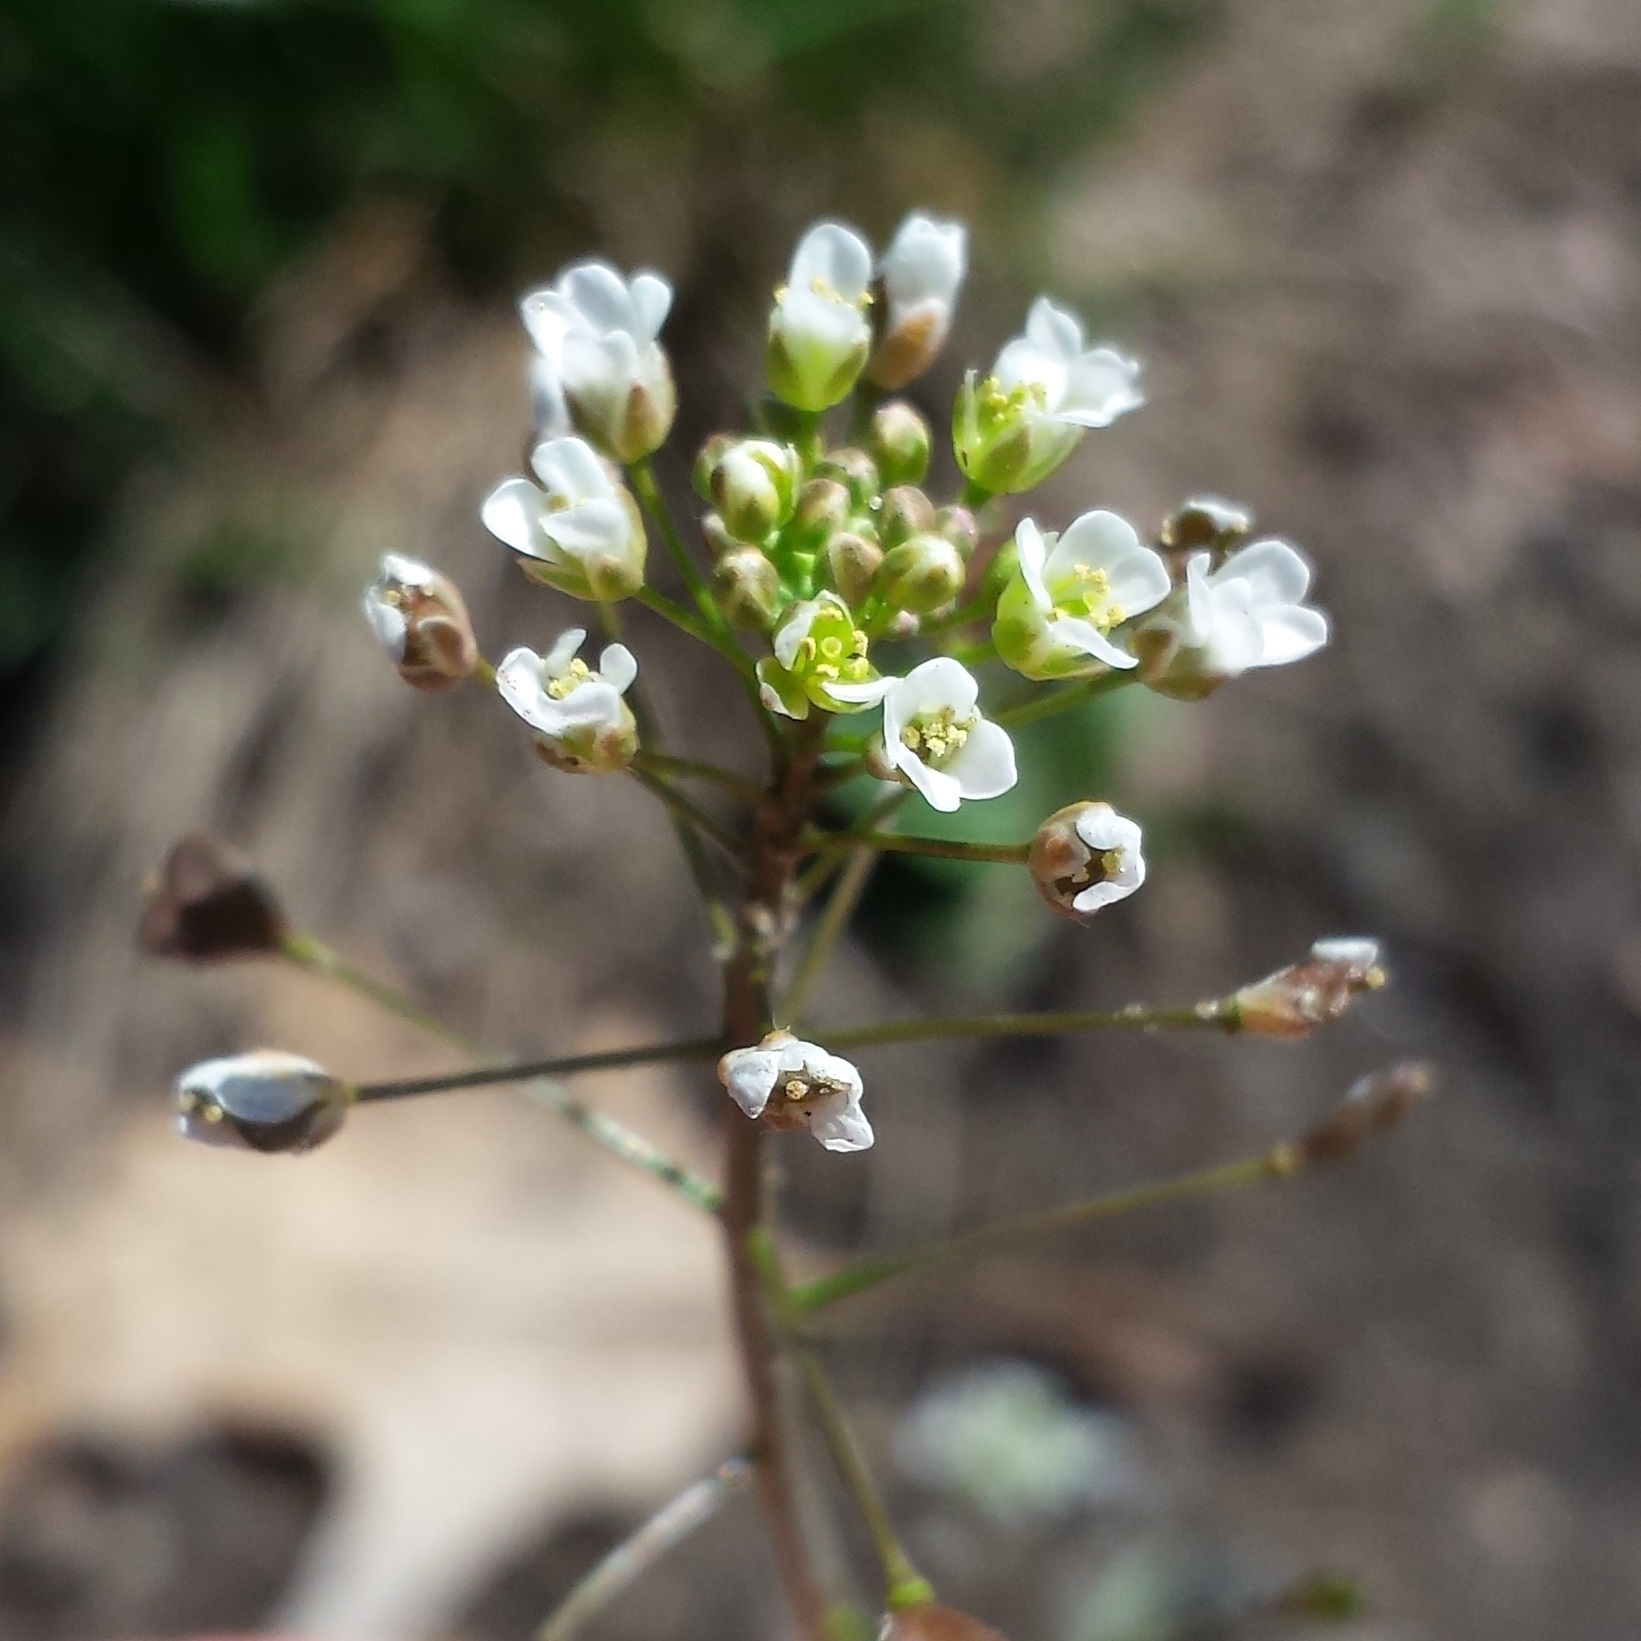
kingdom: Plantae
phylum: Tracheophyta
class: Magnoliopsida
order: Brassicales
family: Brassicaceae
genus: Capsella
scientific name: Capsella bursa-pastoris
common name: Shepherd's purse
